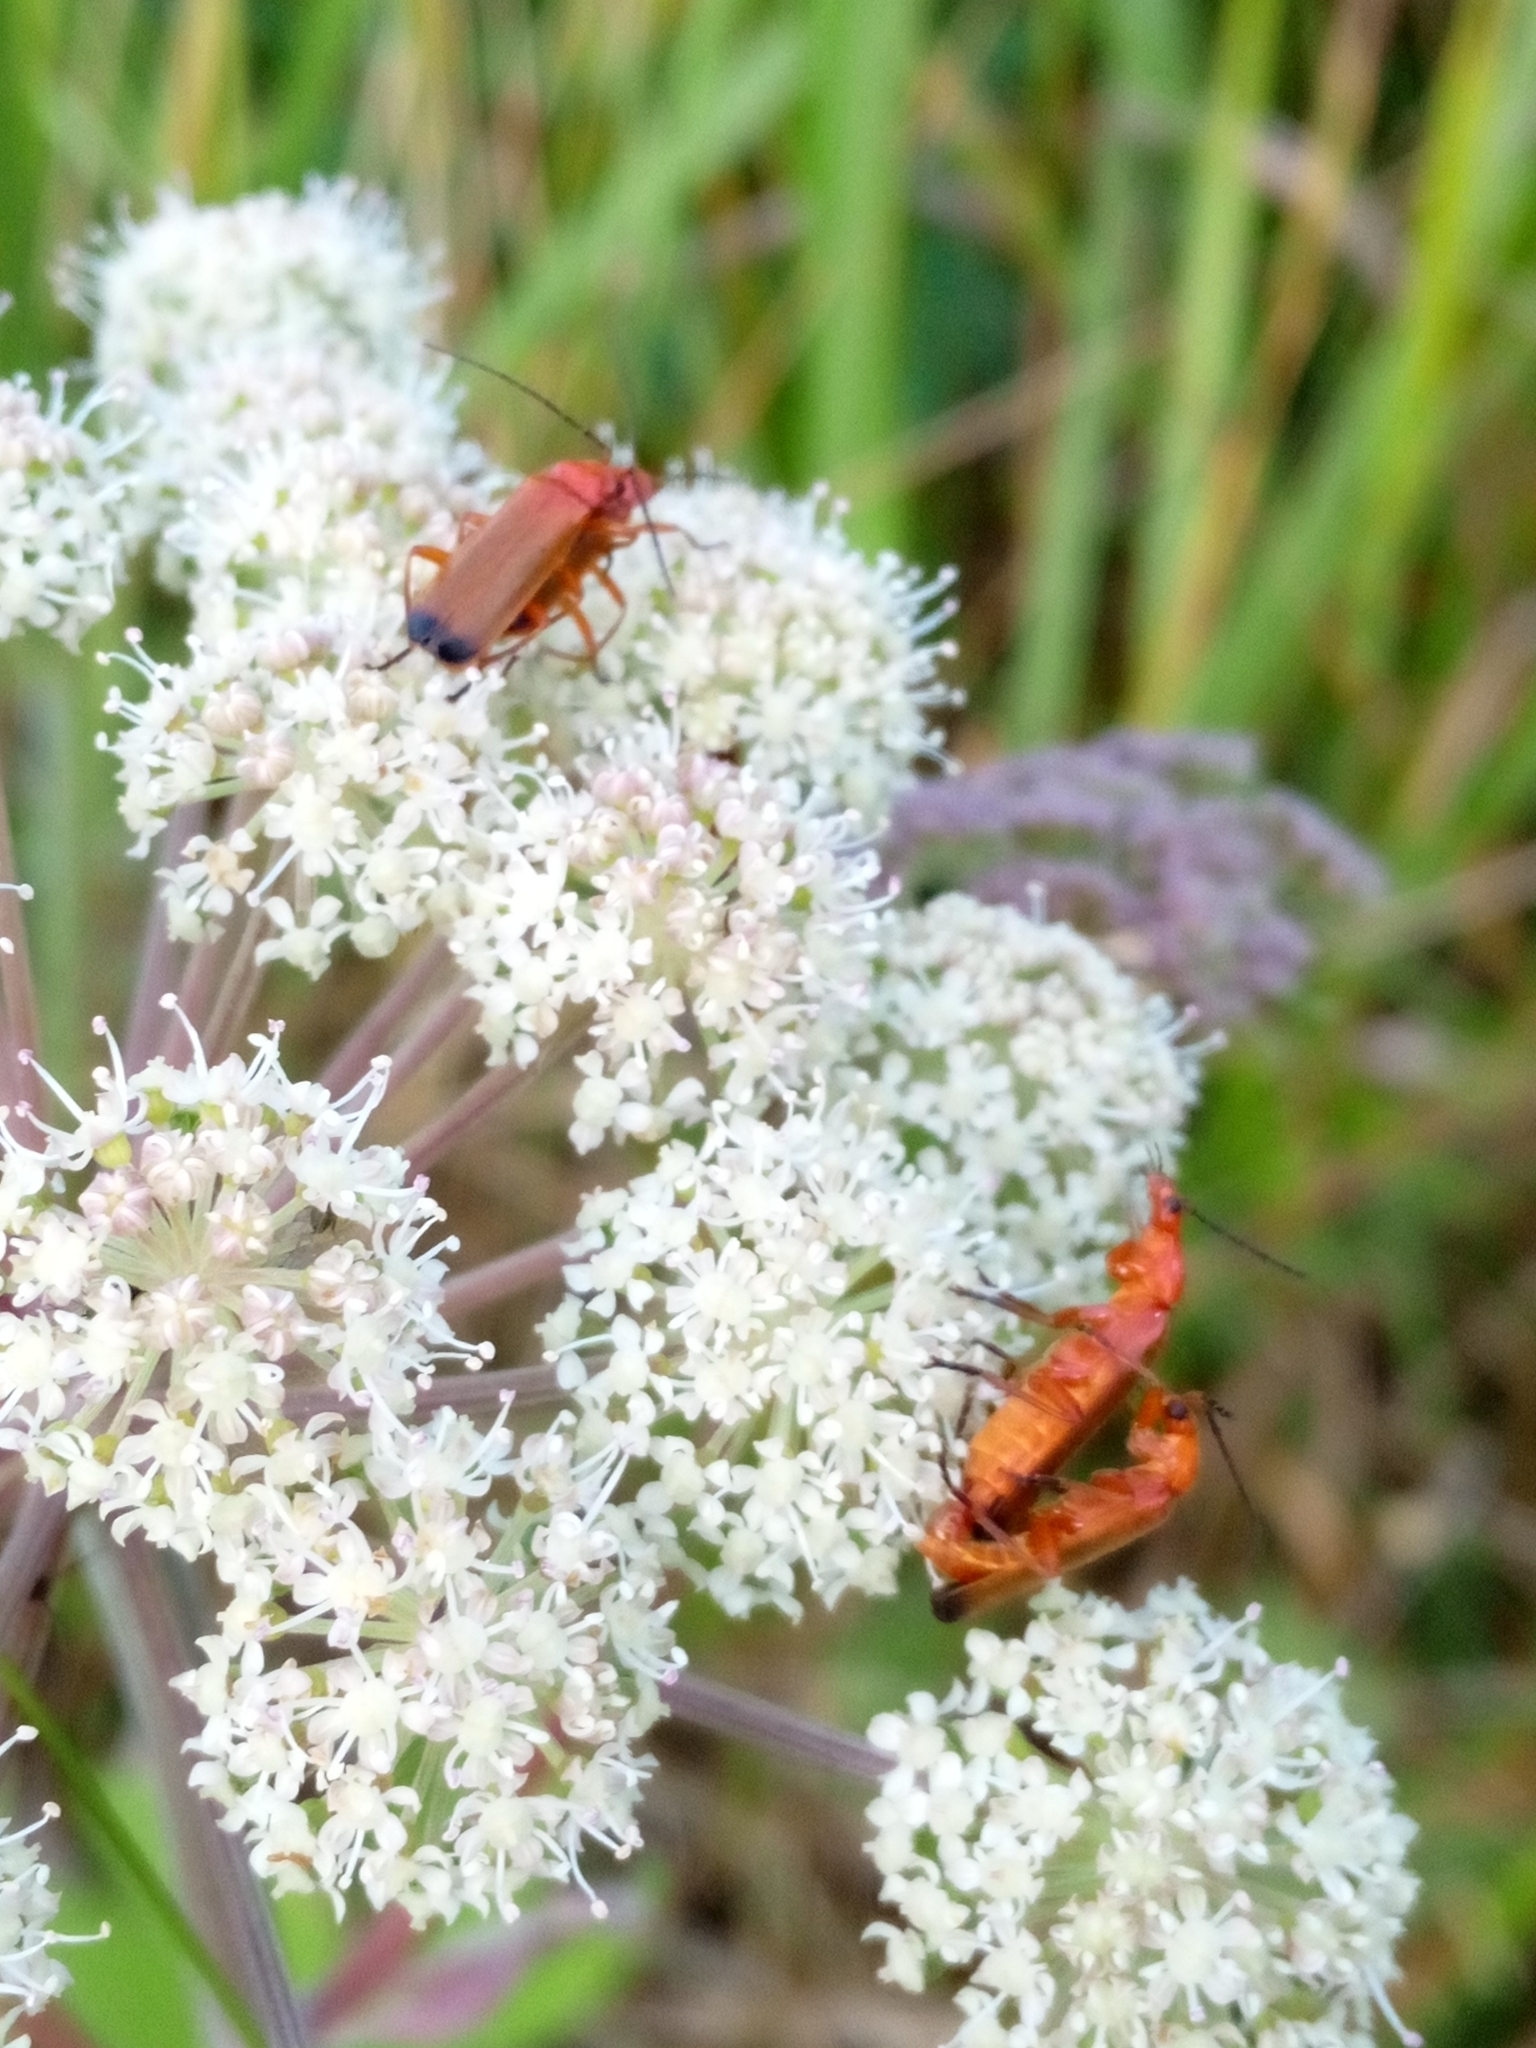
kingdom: Animalia
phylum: Arthropoda
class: Insecta
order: Coleoptera
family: Cantharidae
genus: Rhagonycha
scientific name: Rhagonycha fulva
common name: Common red soldier beetle
